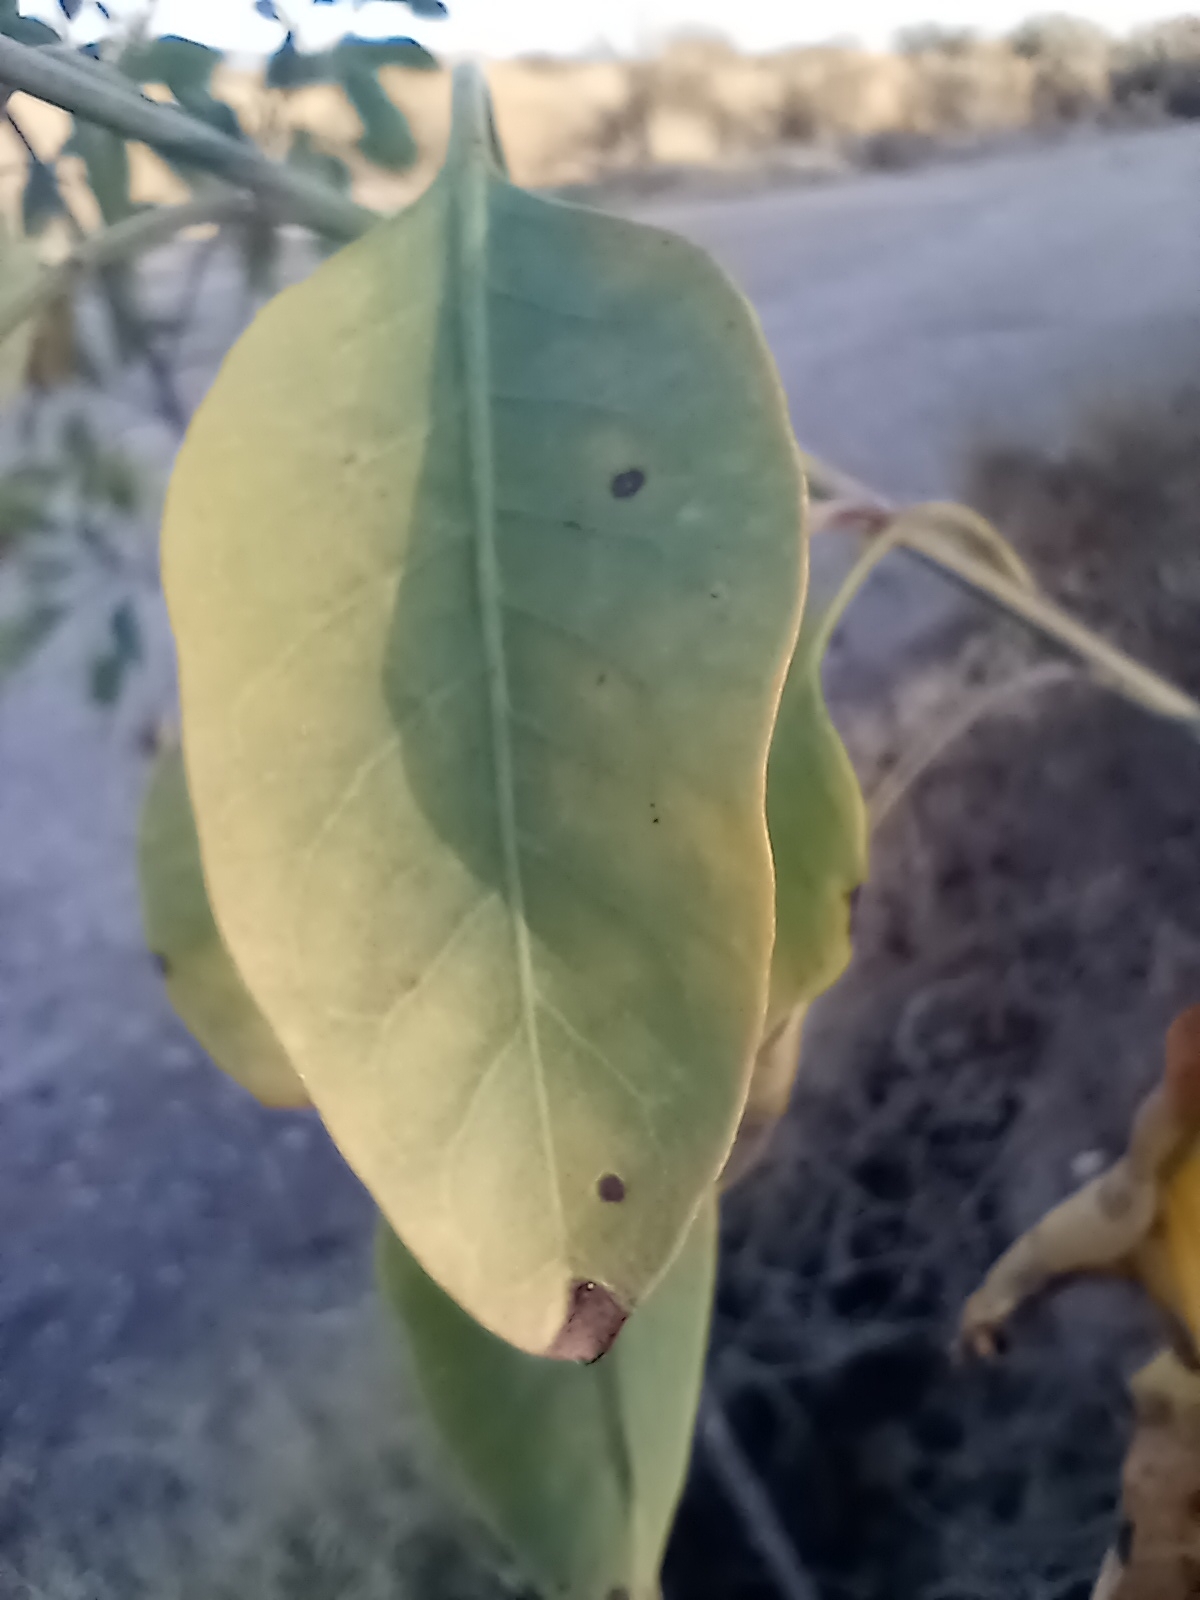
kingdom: Plantae
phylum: Tracheophyta
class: Magnoliopsida
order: Solanales
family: Solanaceae
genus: Nicotiana
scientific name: Nicotiana glauca
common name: Tree tobacco
